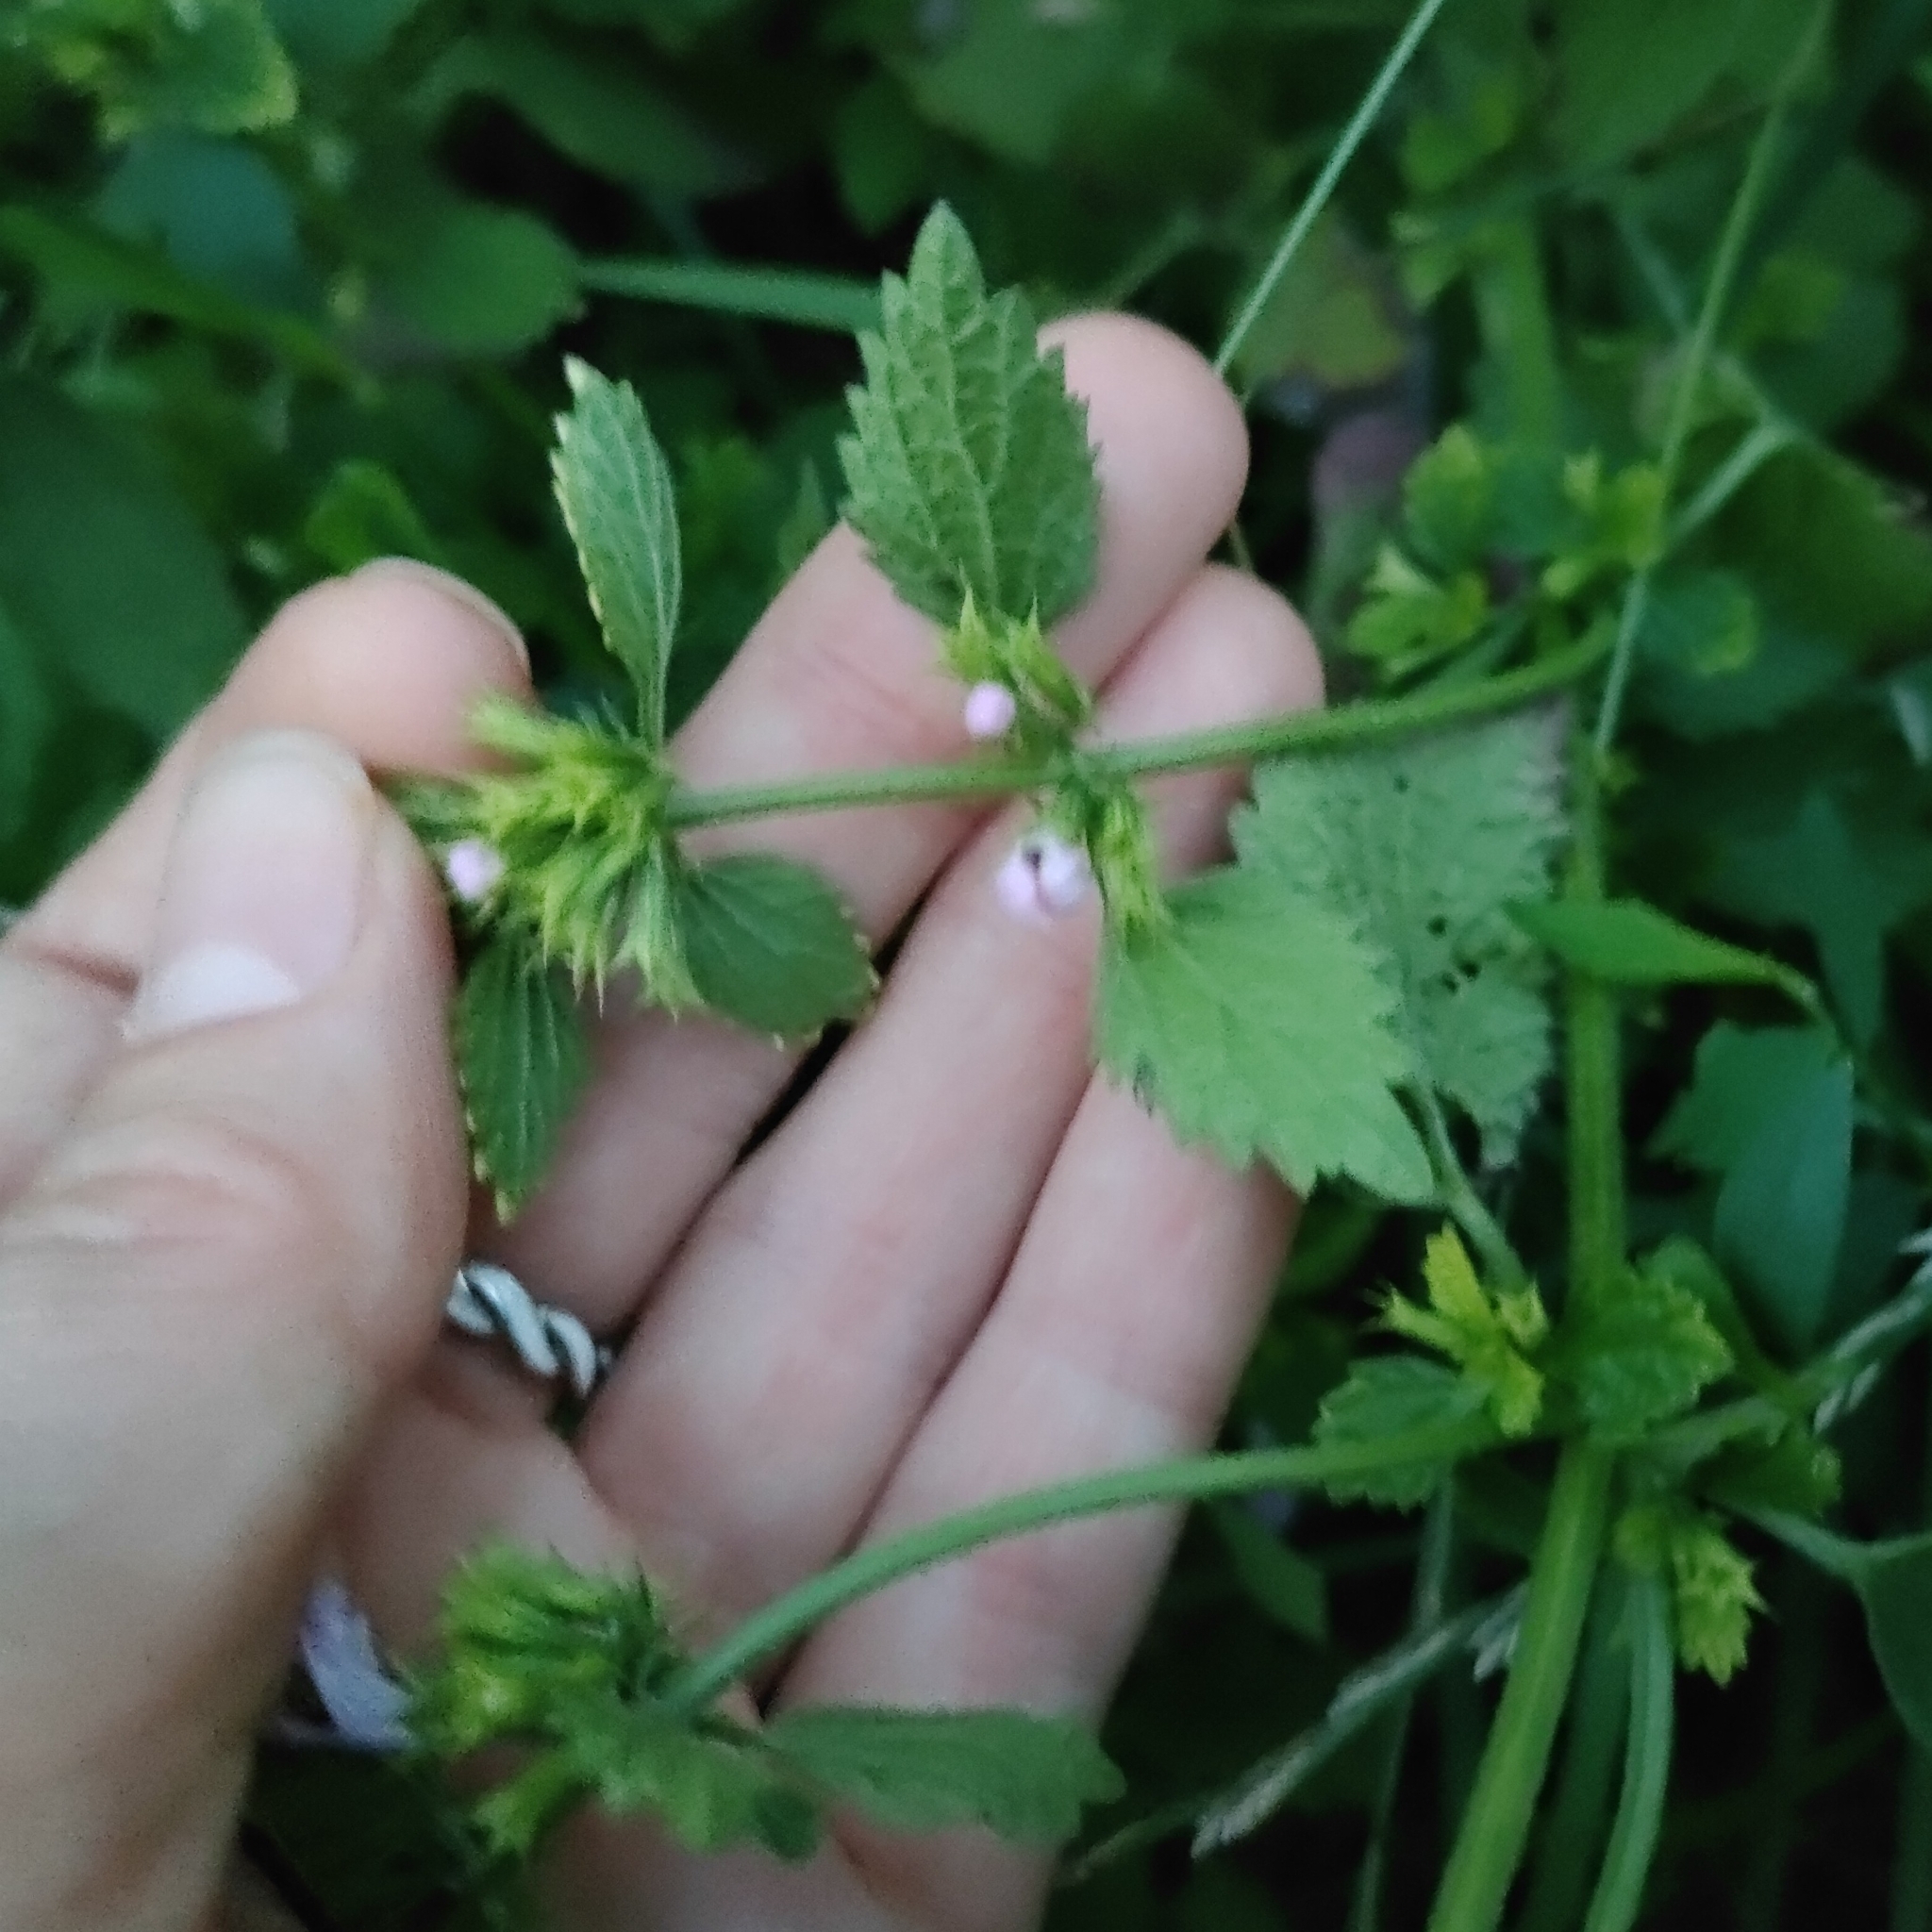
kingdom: Plantae
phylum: Tracheophyta
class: Magnoliopsida
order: Lamiales
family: Lamiaceae
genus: Ballota
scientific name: Ballota nigra
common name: Black horehound
